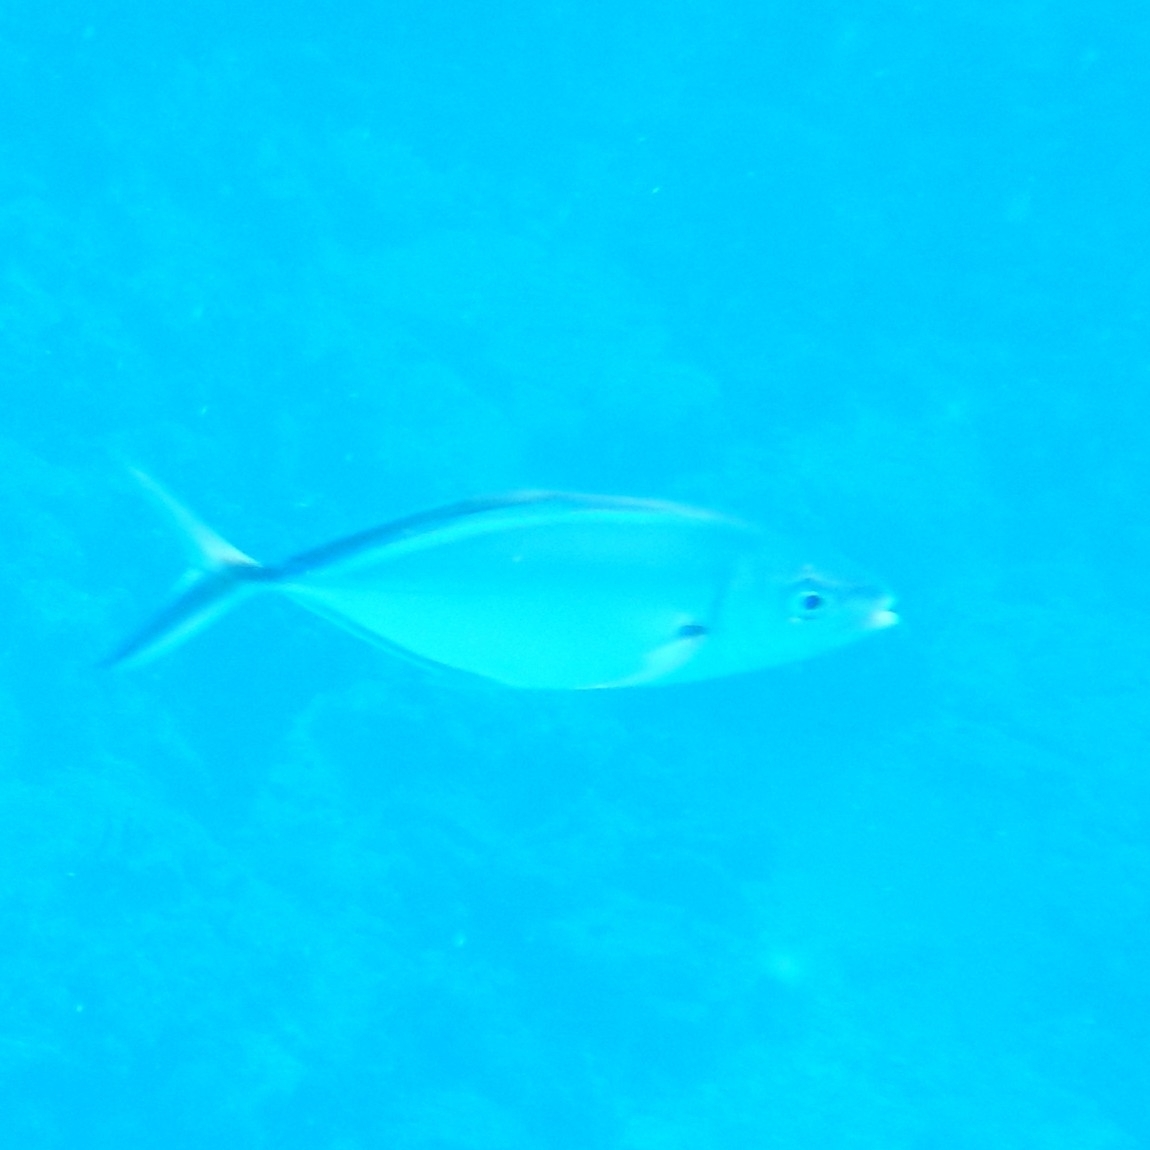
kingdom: Animalia
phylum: Chordata
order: Perciformes
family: Carangidae
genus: Caranx
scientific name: Caranx ruber
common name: Bar jack
